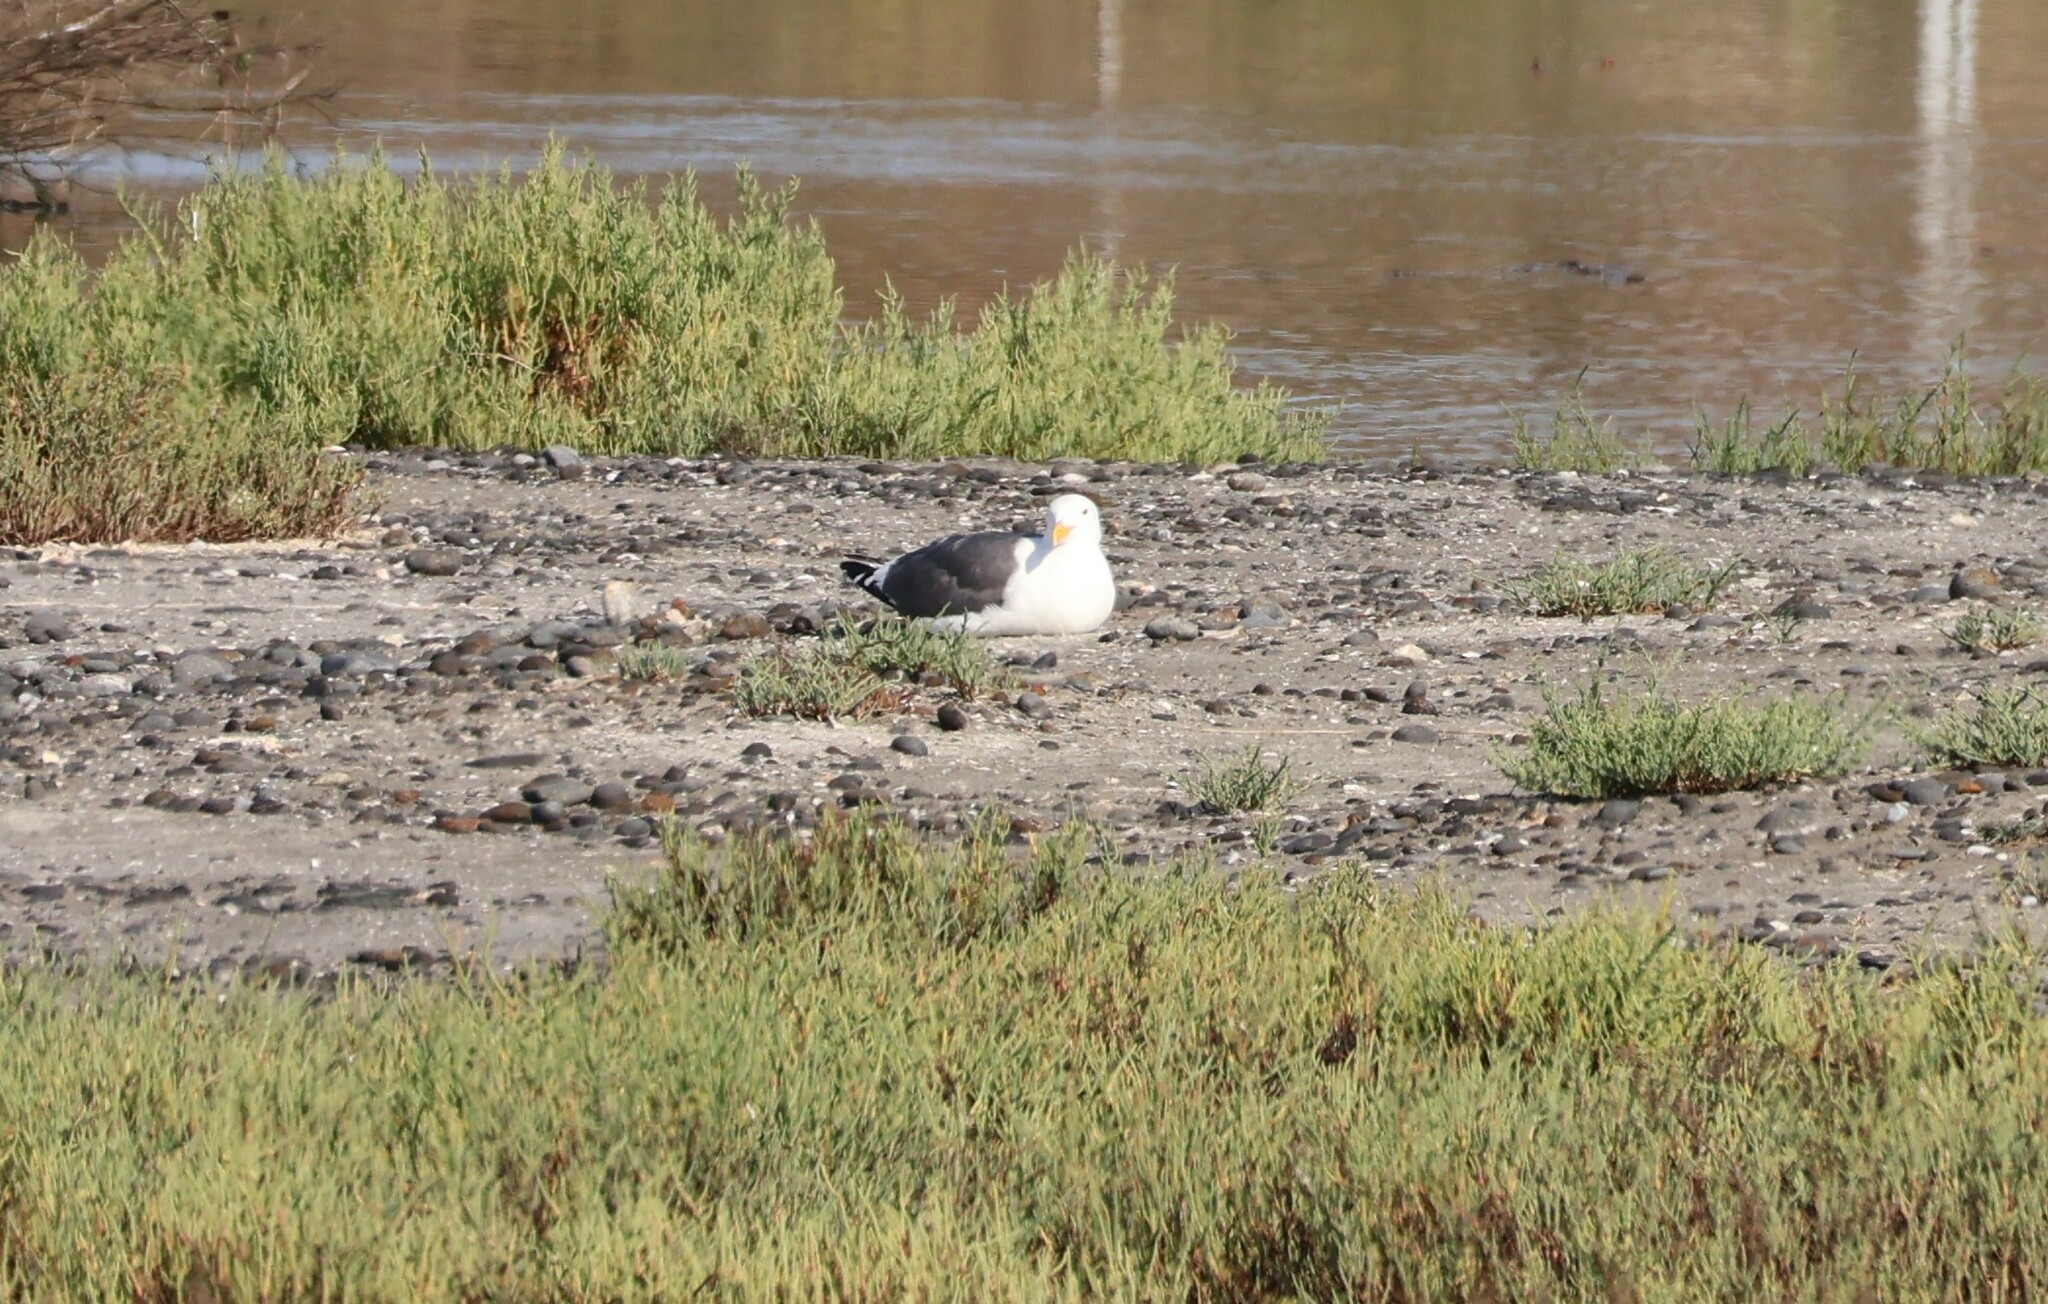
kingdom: Animalia
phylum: Chordata
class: Aves
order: Charadriiformes
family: Laridae
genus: Larus
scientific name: Larus occidentalis
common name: Western gull
